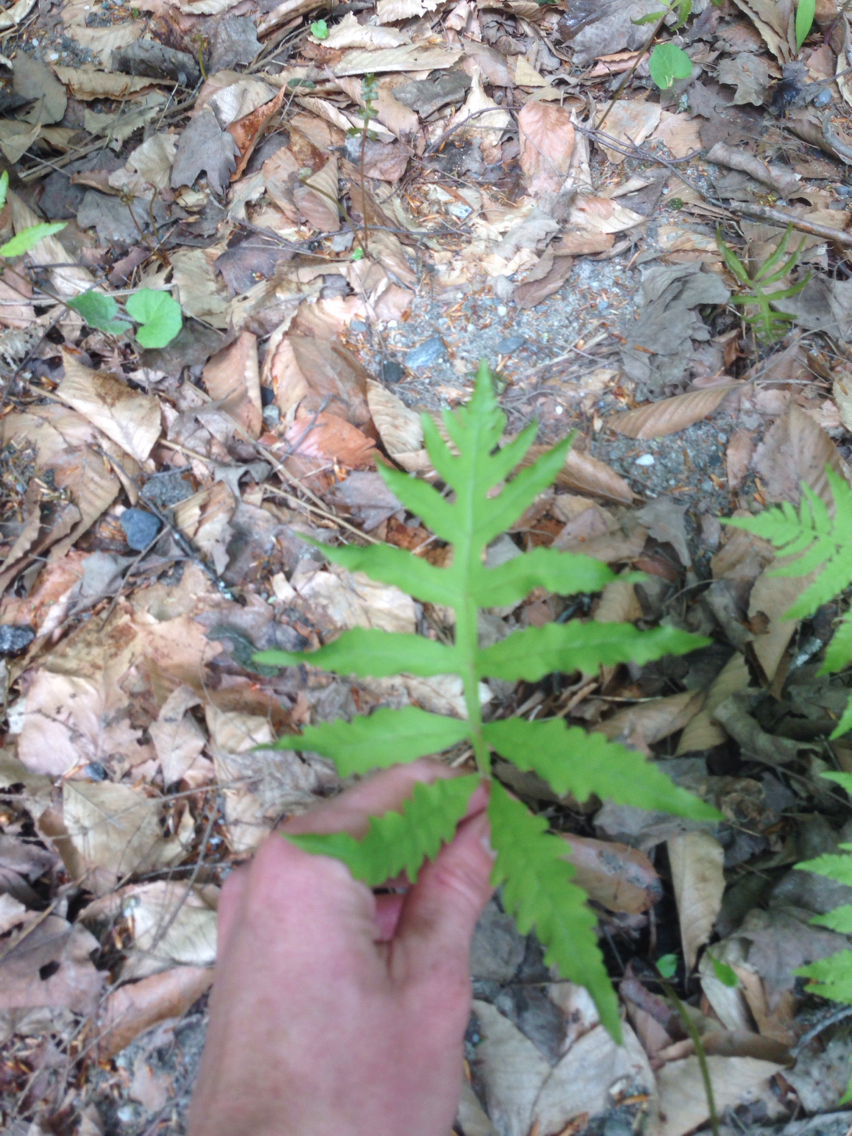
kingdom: Plantae
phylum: Tracheophyta
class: Polypodiopsida
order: Polypodiales
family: Onocleaceae
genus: Onoclea
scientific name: Onoclea sensibilis
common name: Sensitive fern
